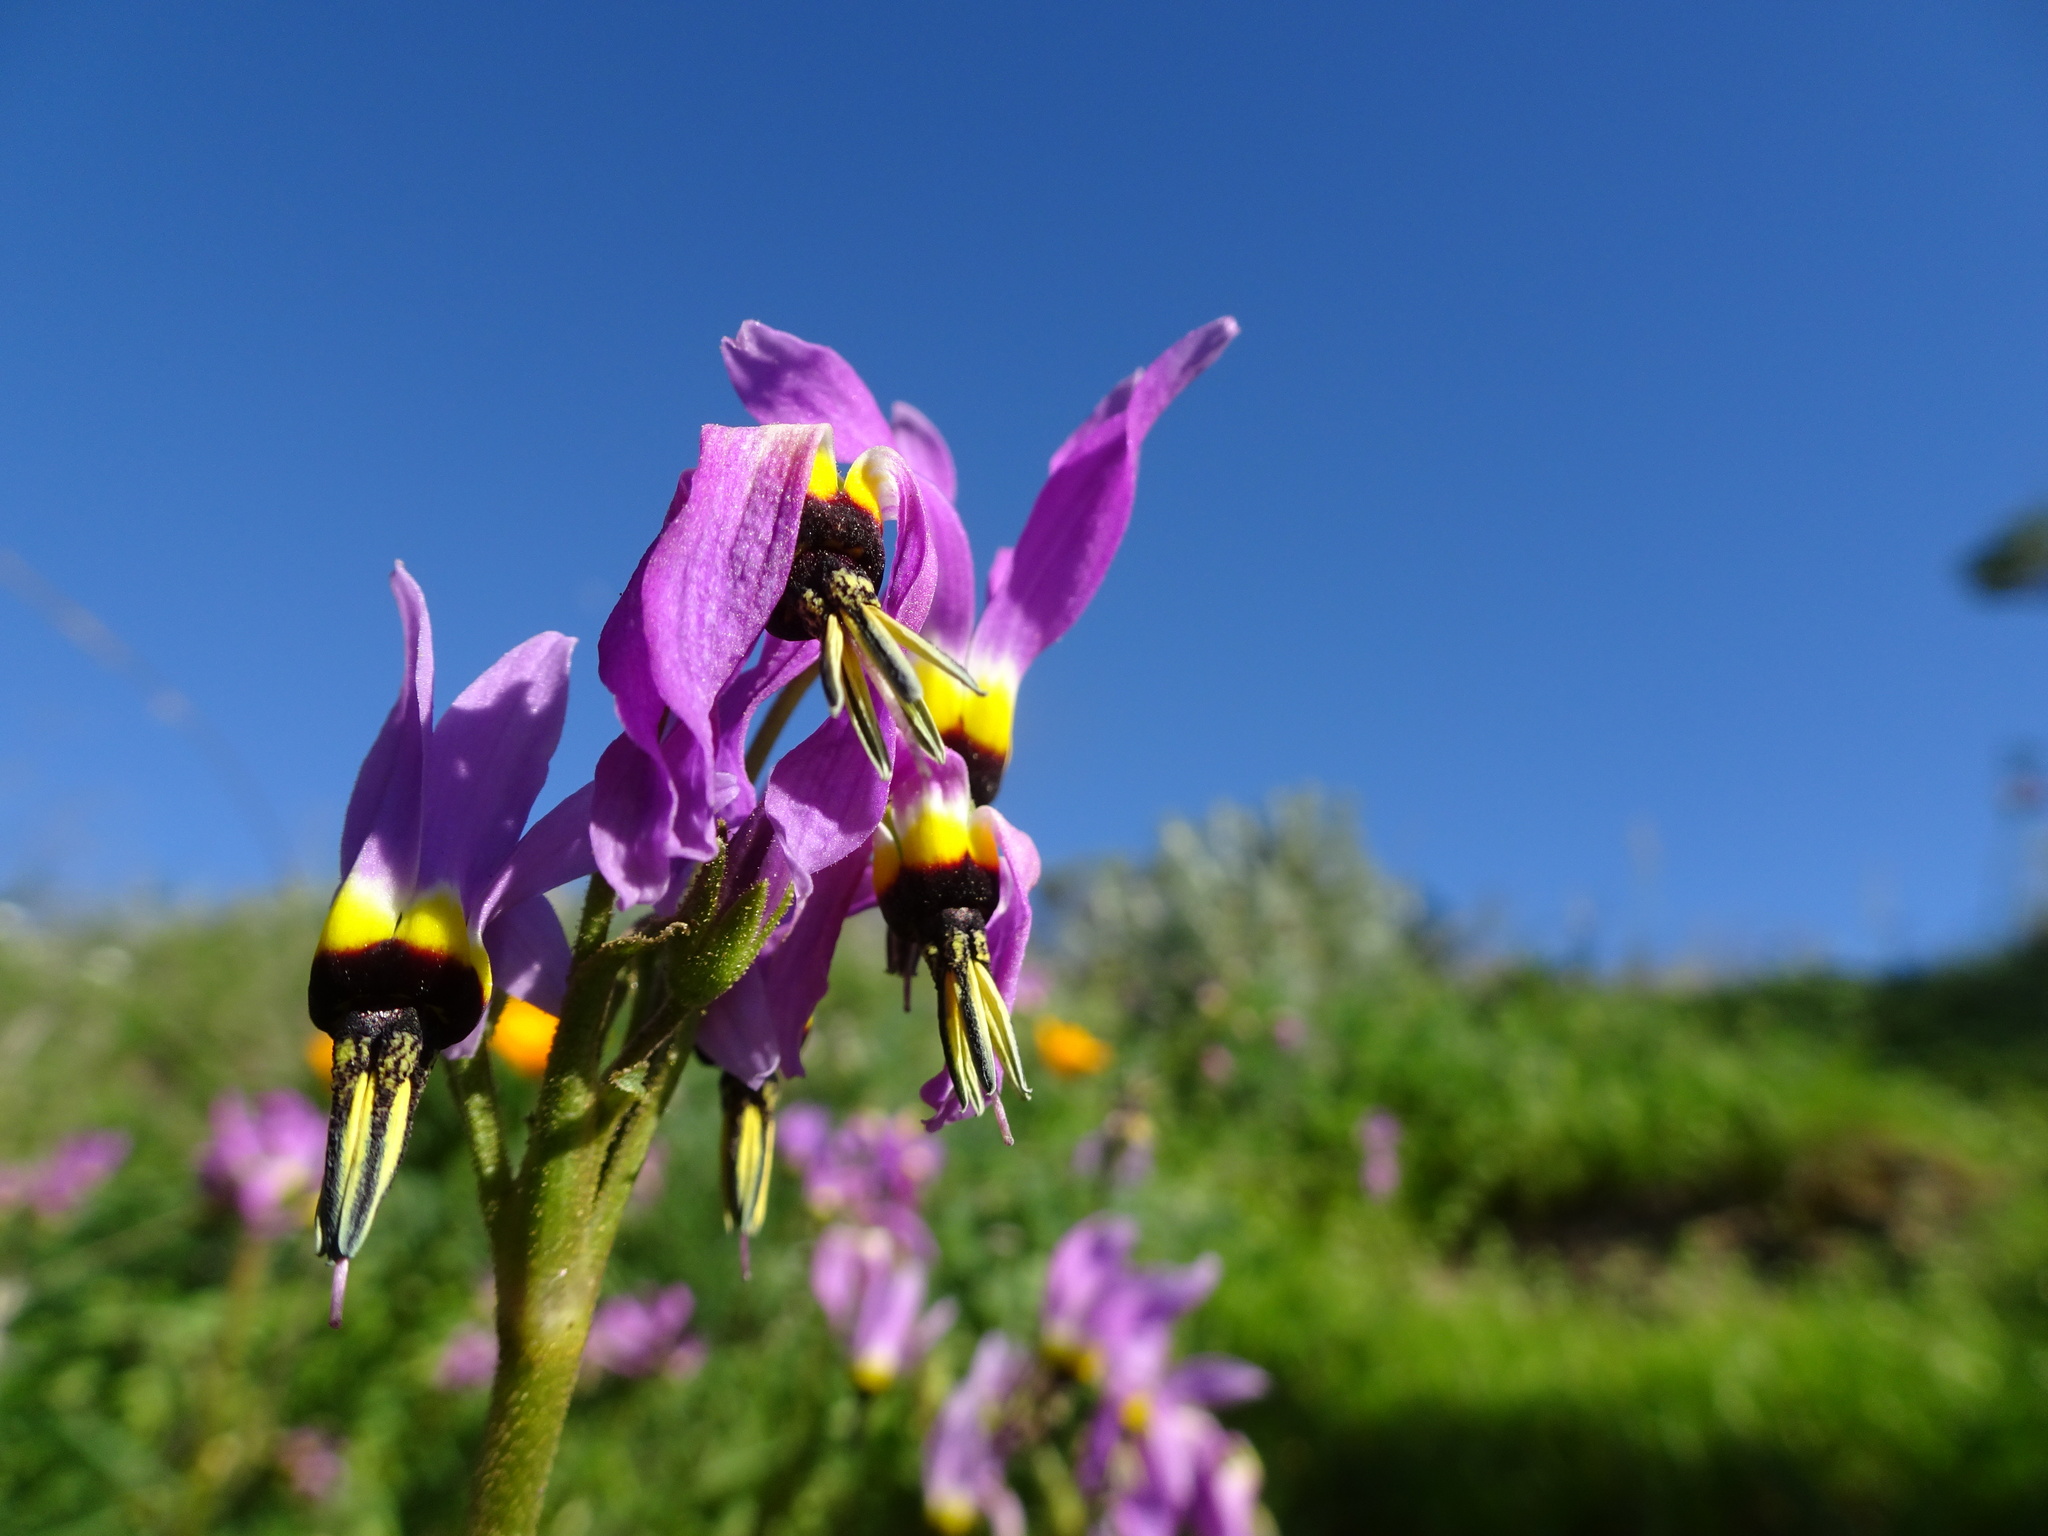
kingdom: Plantae
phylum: Tracheophyta
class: Magnoliopsida
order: Ericales
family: Primulaceae
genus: Dodecatheon
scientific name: Dodecatheon clevelandii
